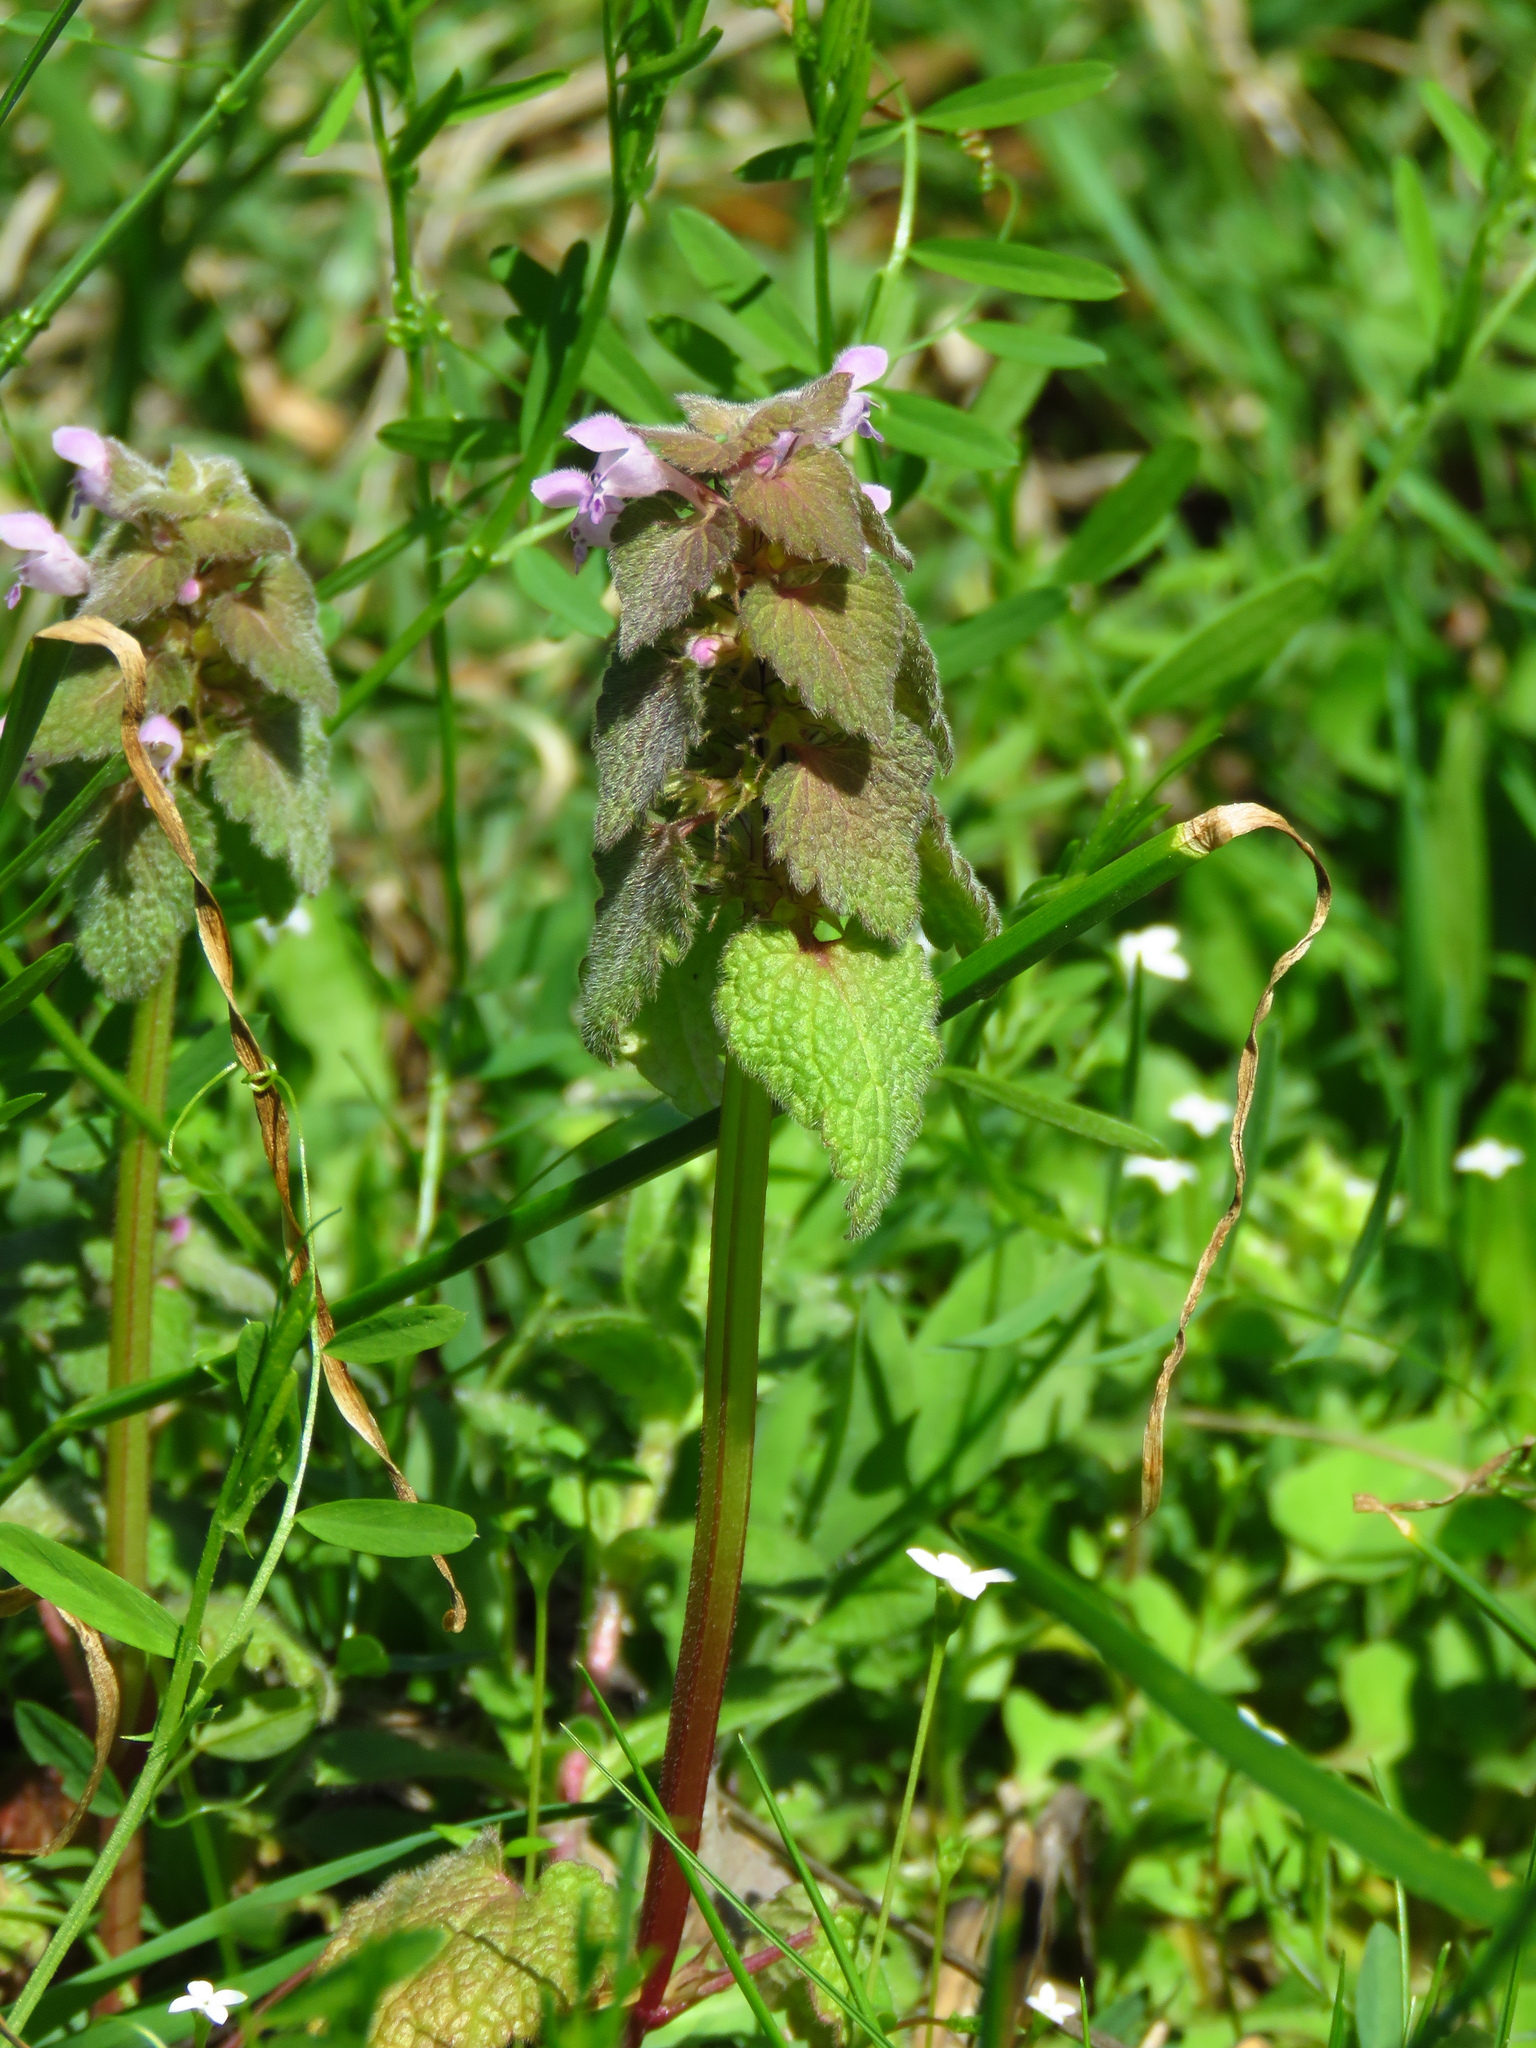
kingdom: Plantae
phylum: Tracheophyta
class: Magnoliopsida
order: Lamiales
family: Lamiaceae
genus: Lamium
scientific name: Lamium purpureum
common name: Red dead-nettle
